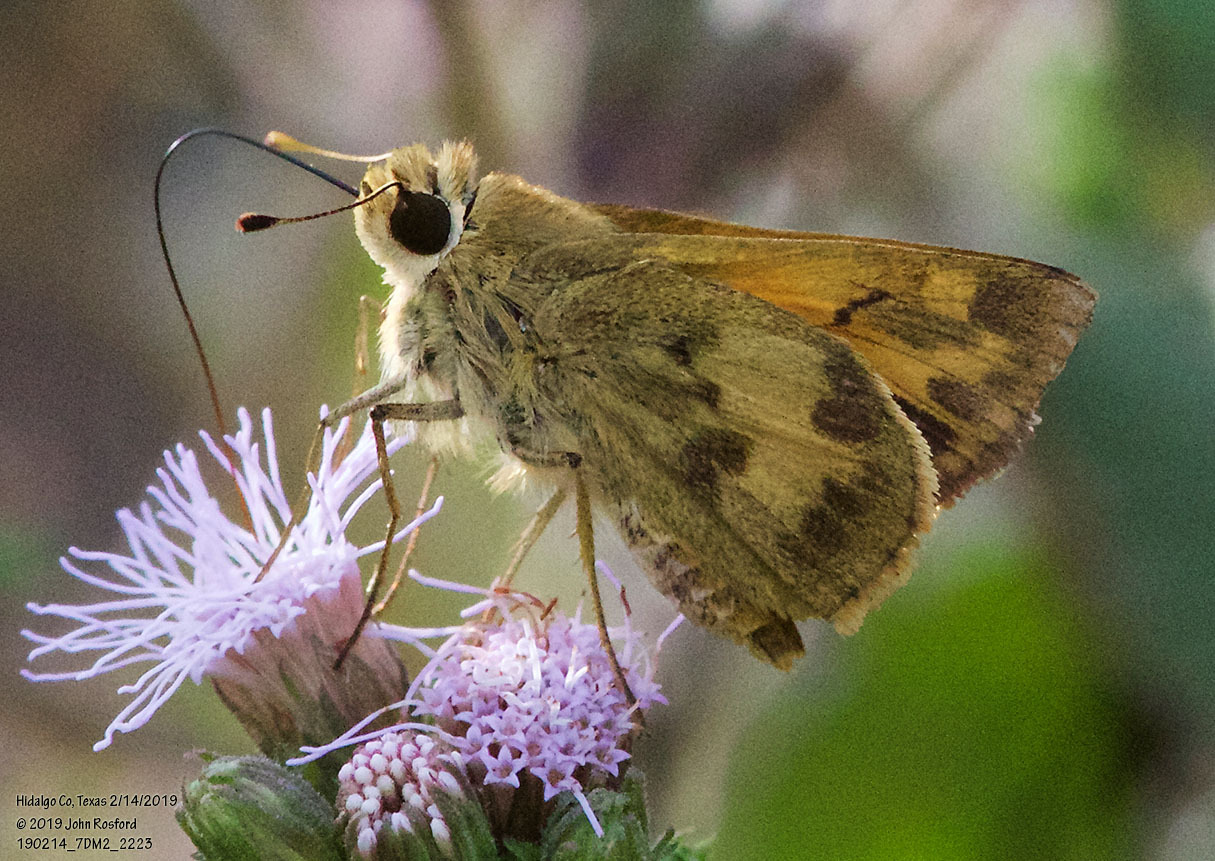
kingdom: Animalia
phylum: Arthropoda
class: Insecta
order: Lepidoptera
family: Hesperiidae
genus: Polites
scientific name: Polites vibex
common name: Whirlabout
